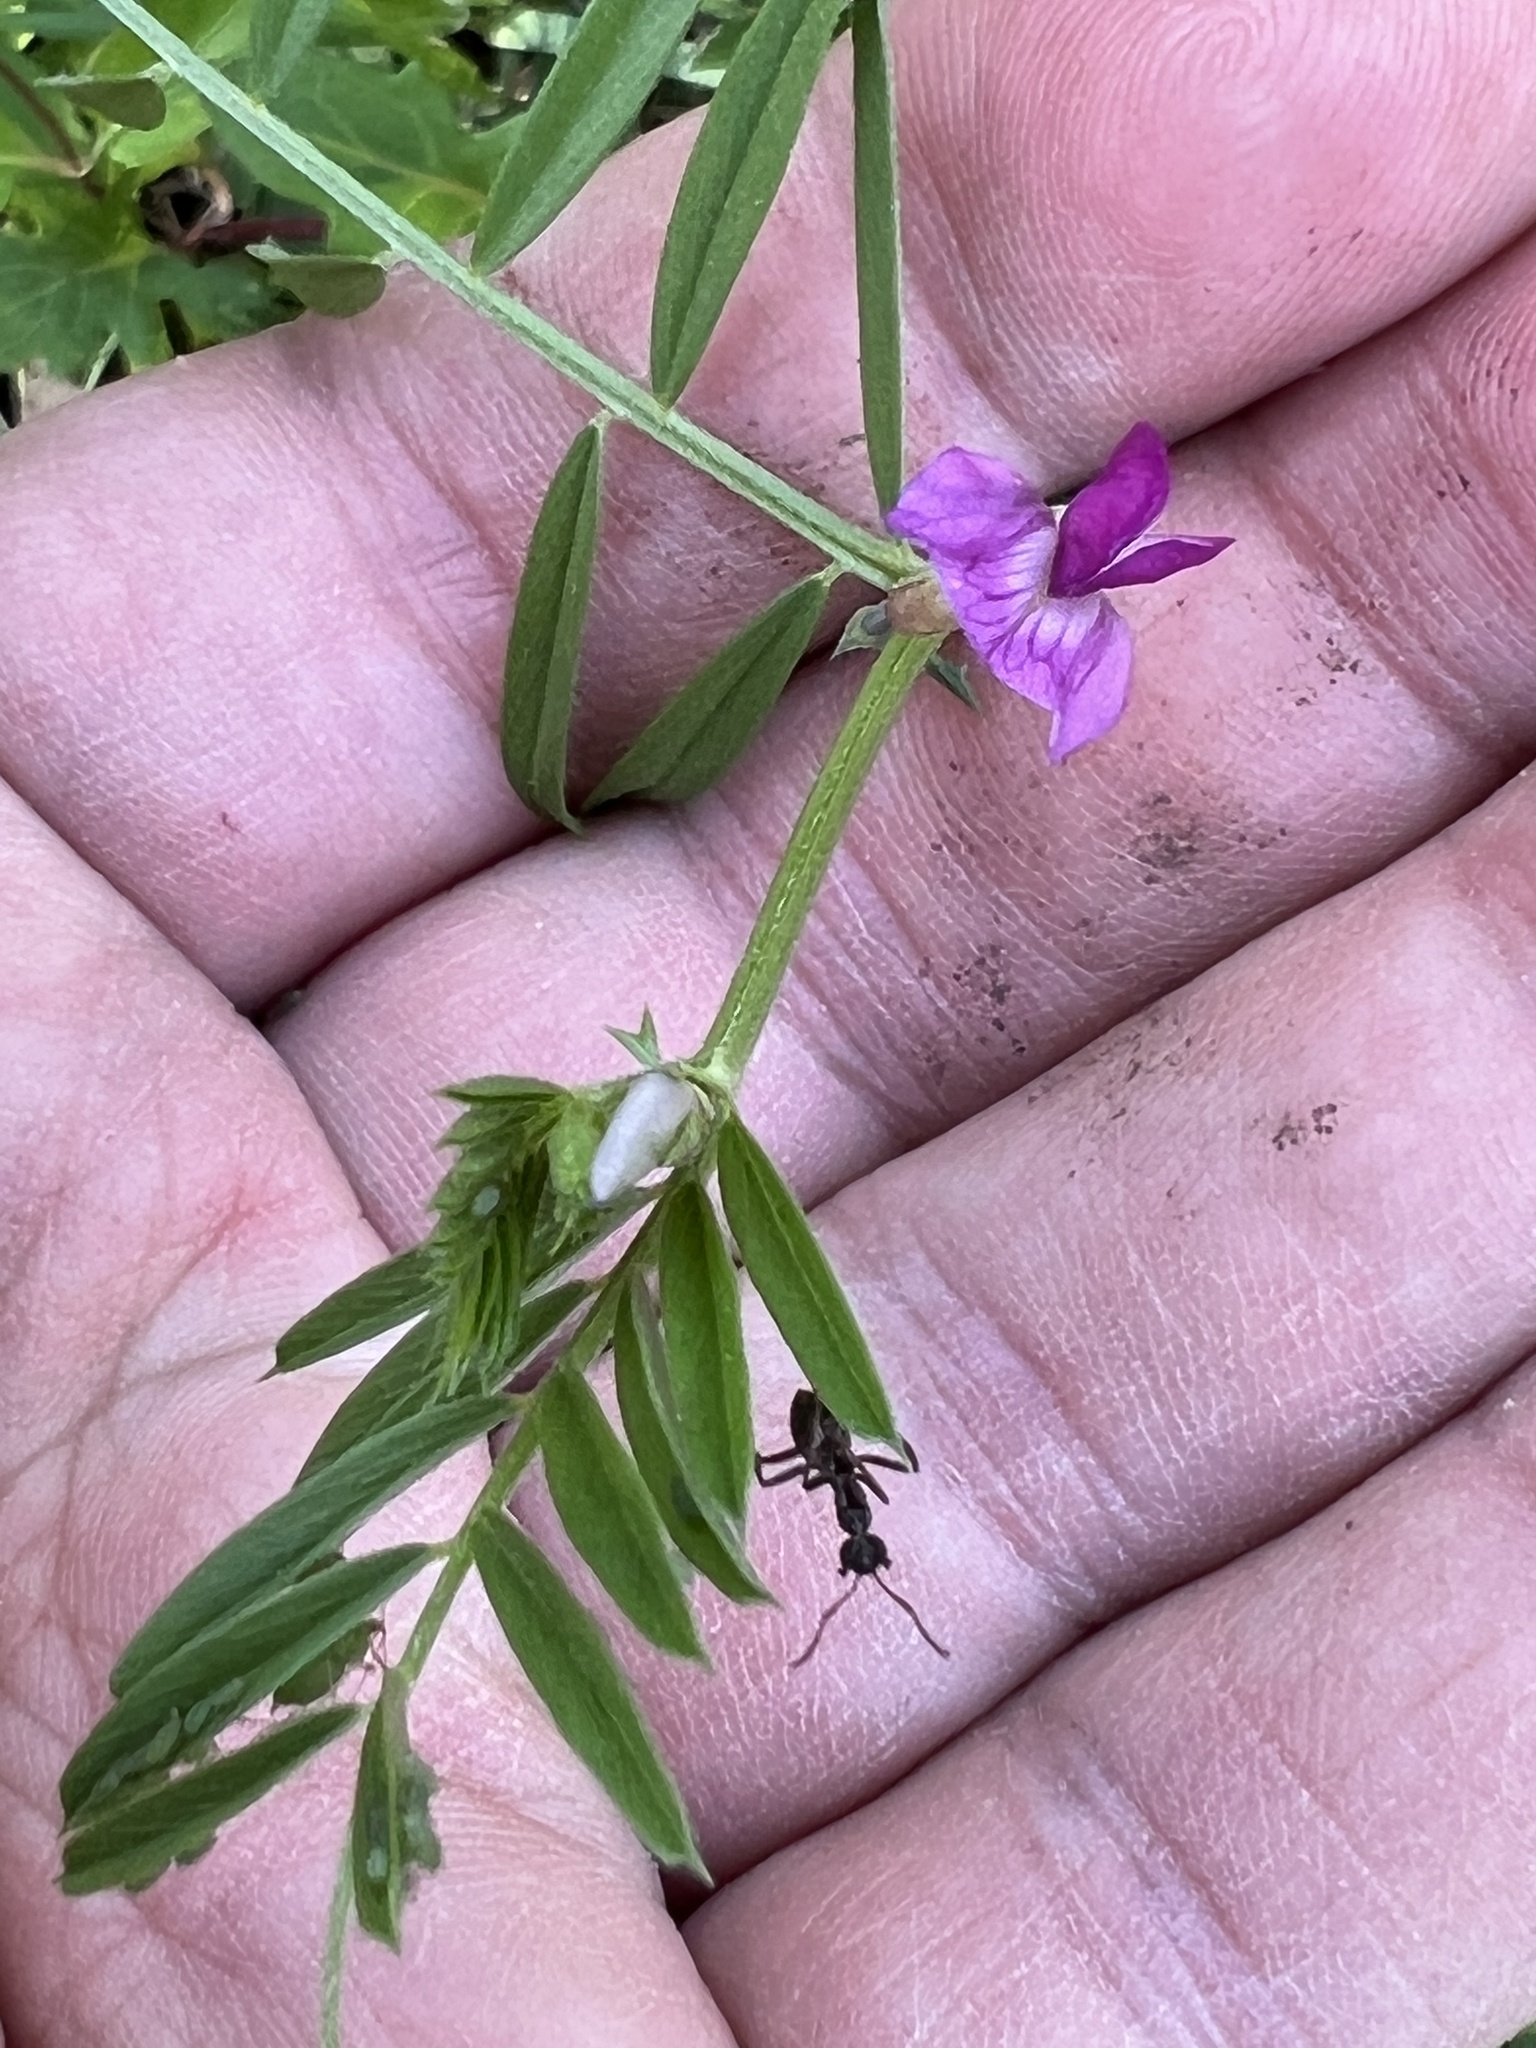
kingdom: Plantae
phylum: Tracheophyta
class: Magnoliopsida
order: Fabales
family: Fabaceae
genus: Vicia
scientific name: Vicia sativa
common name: Garden vetch
